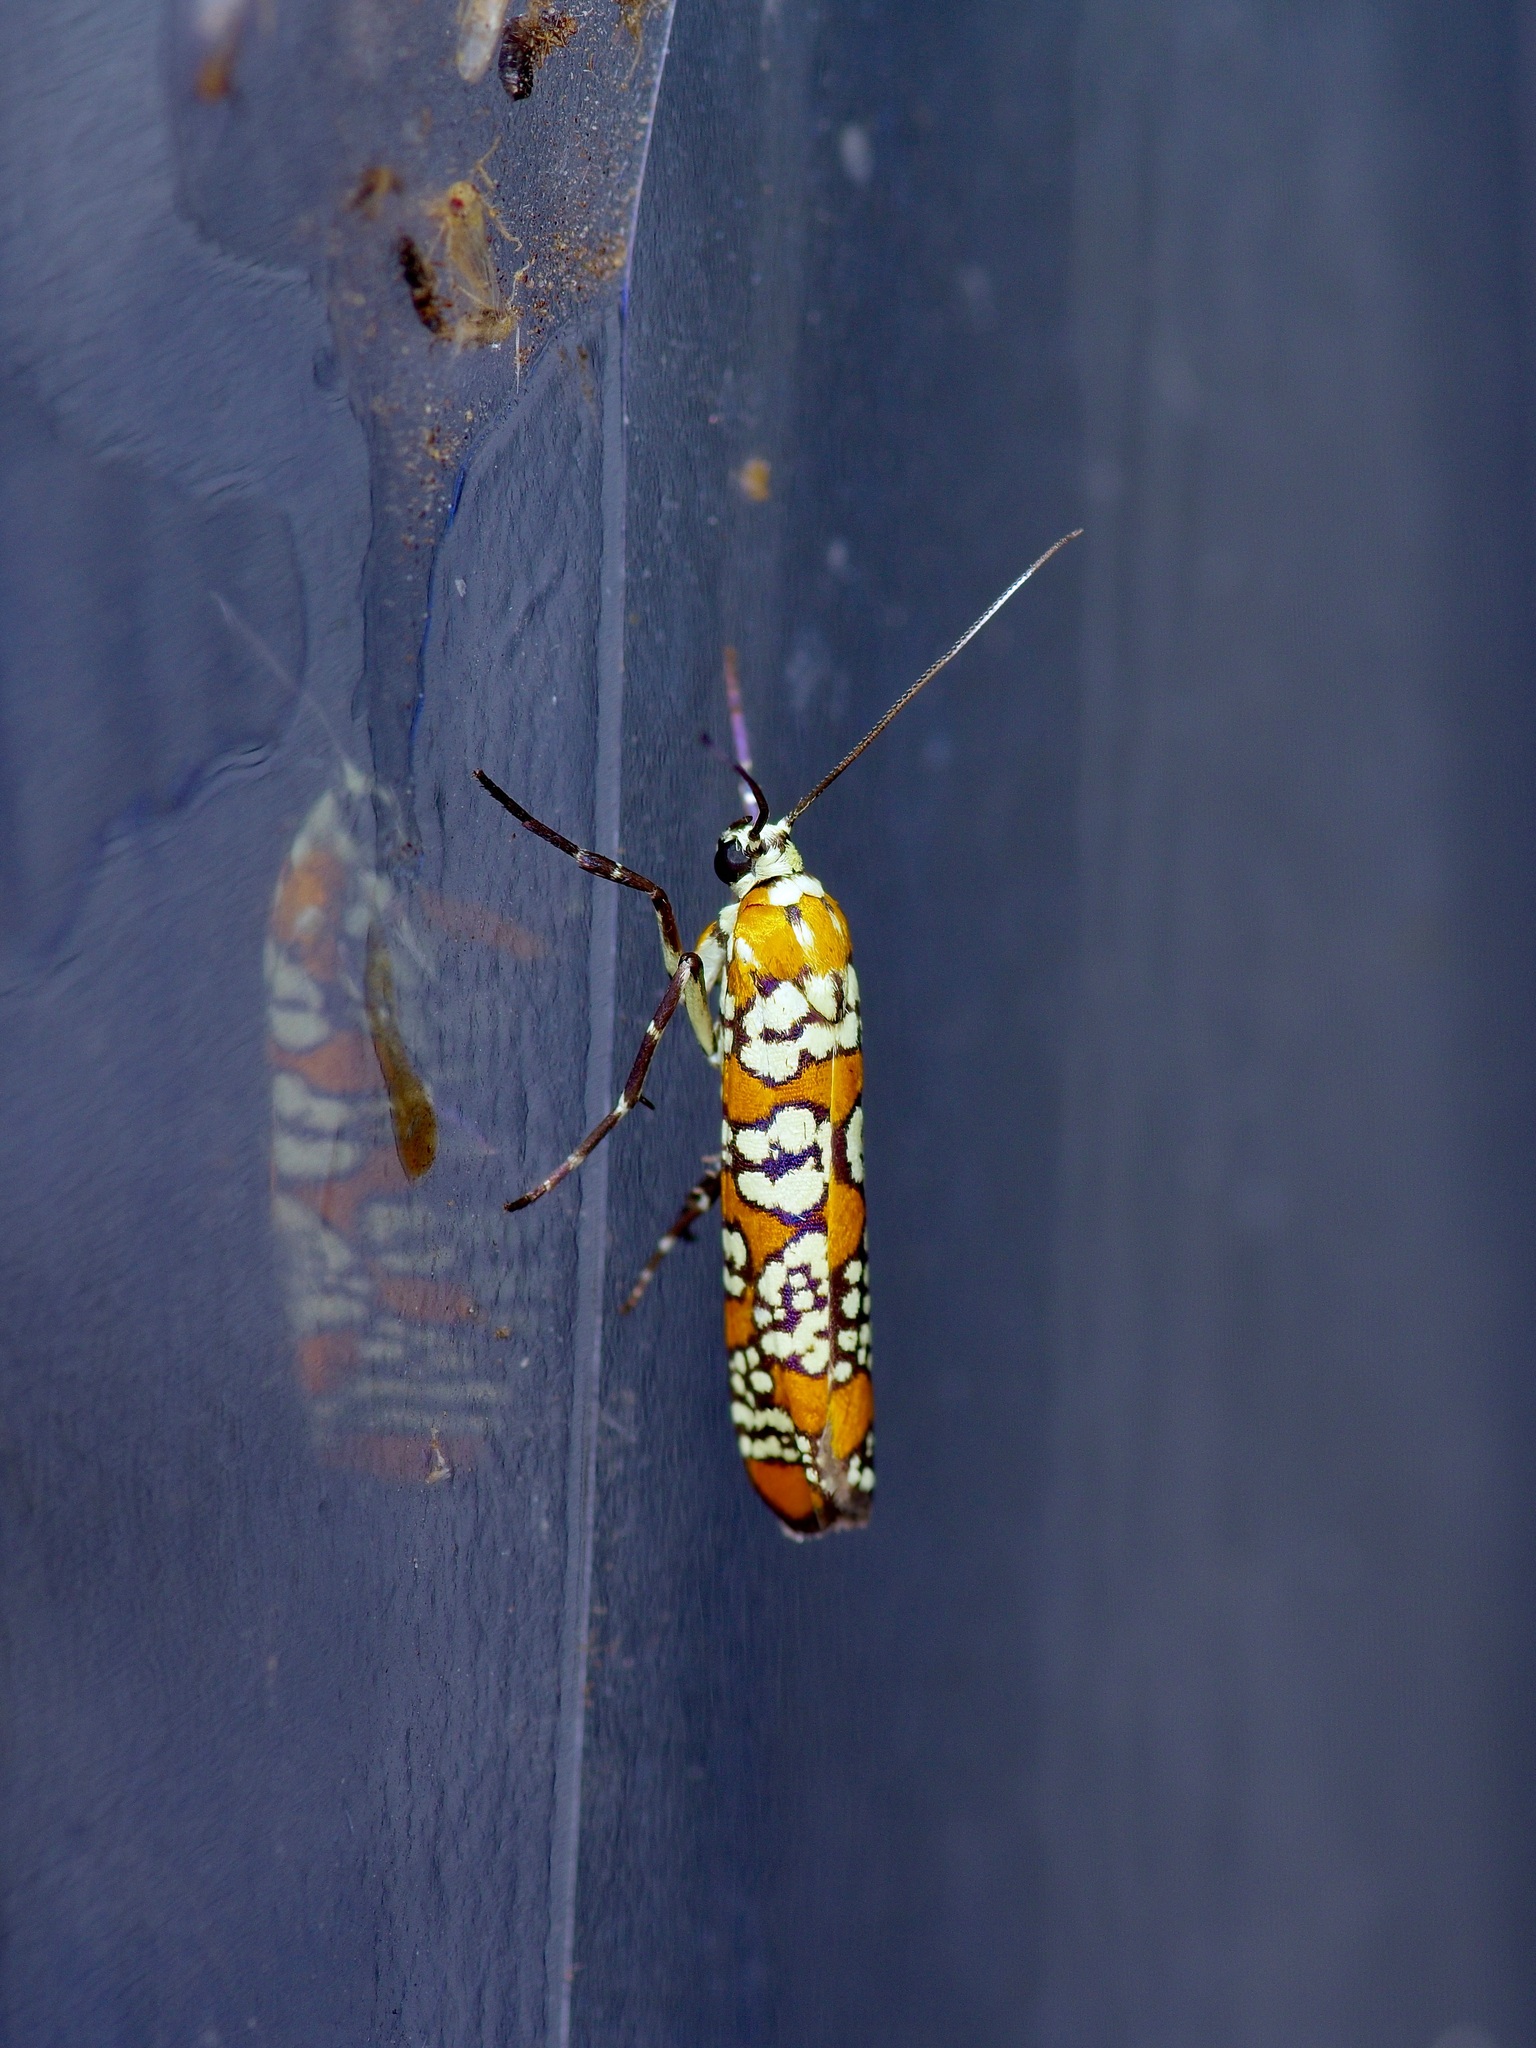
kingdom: Animalia
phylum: Arthropoda
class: Insecta
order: Lepidoptera
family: Attevidae
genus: Atteva
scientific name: Atteva punctella
